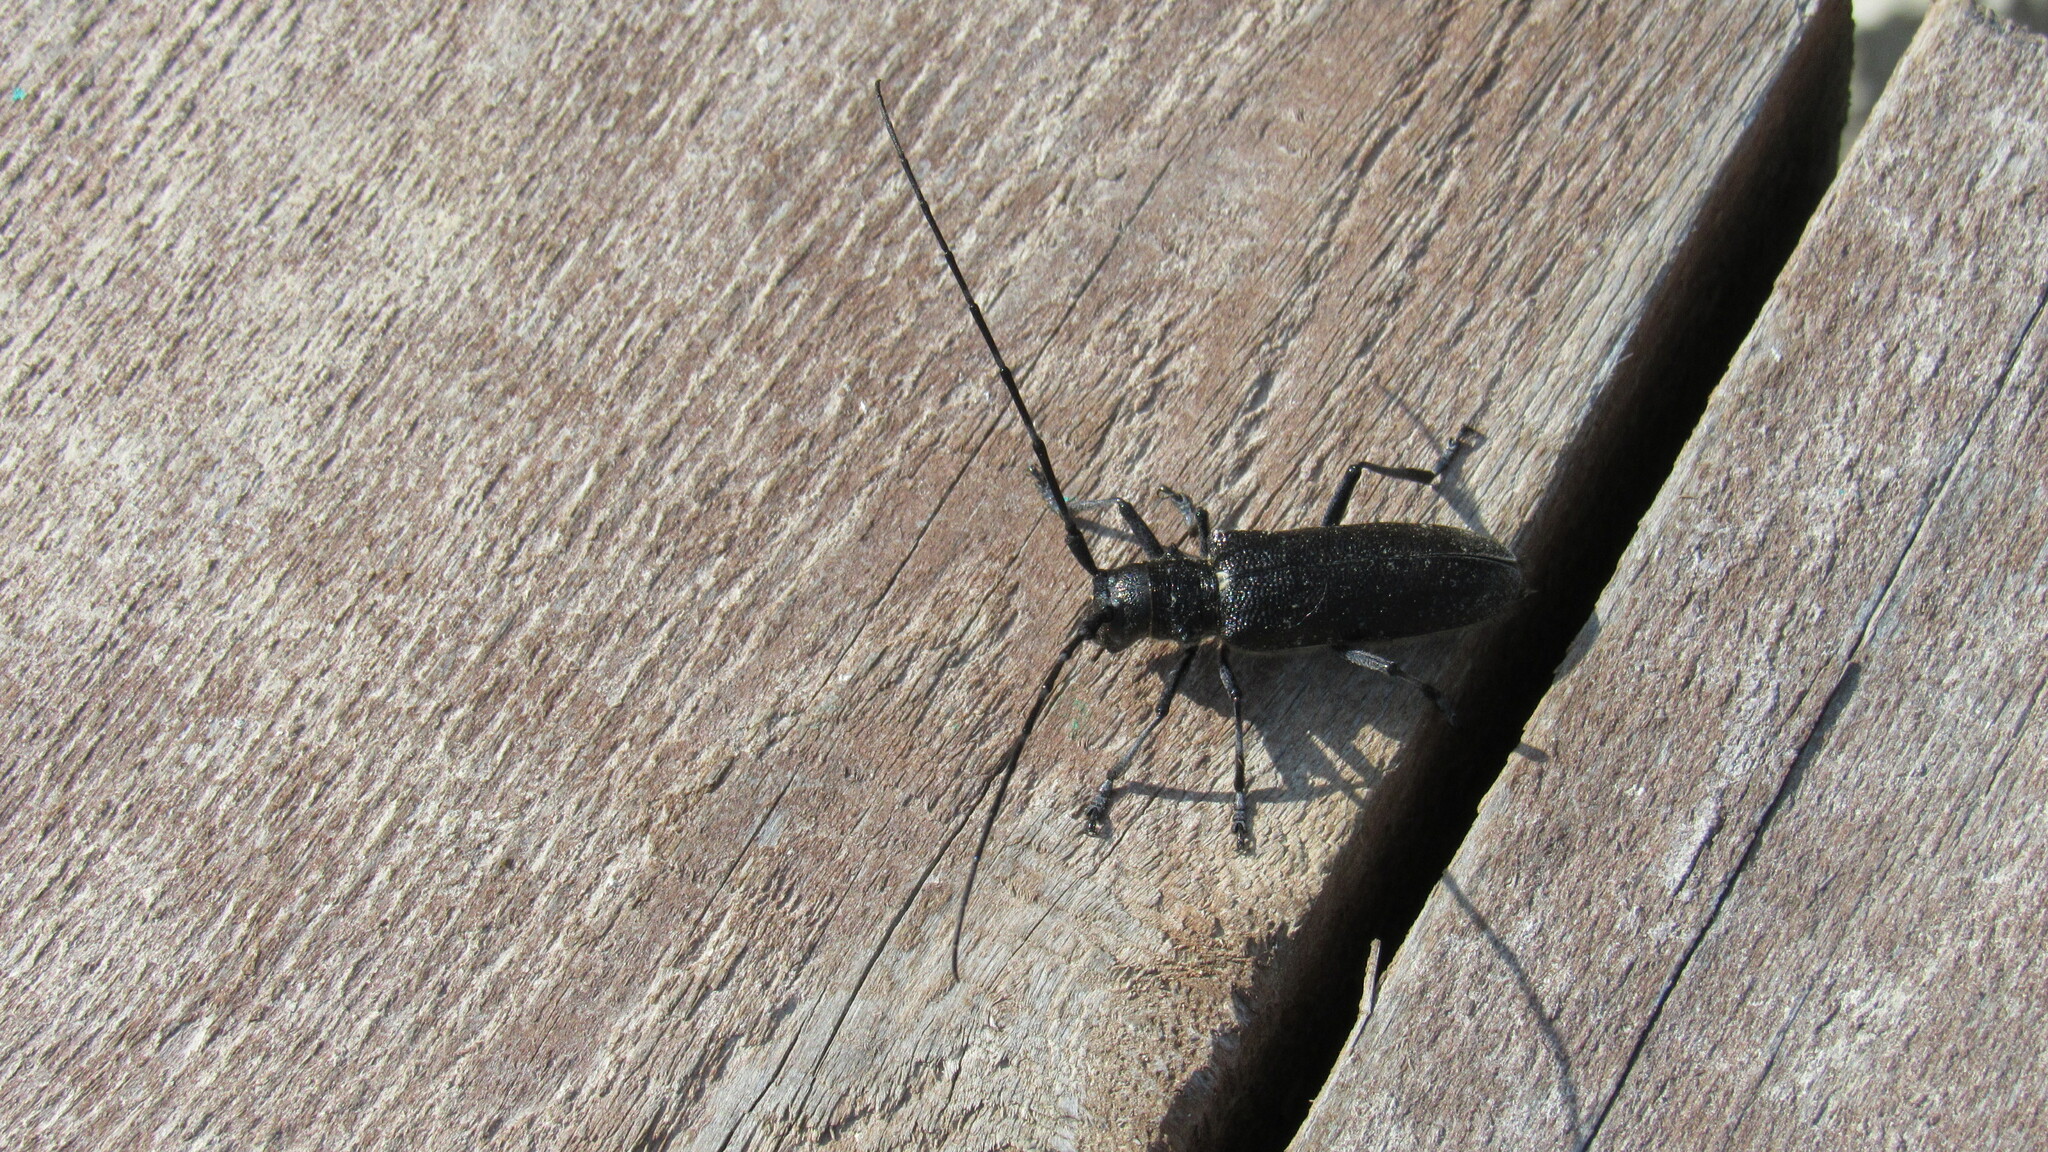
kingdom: Animalia
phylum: Arthropoda
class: Insecta
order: Coleoptera
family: Cerambycidae
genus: Monochamus
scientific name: Monochamus sutor
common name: Pine sawyer
